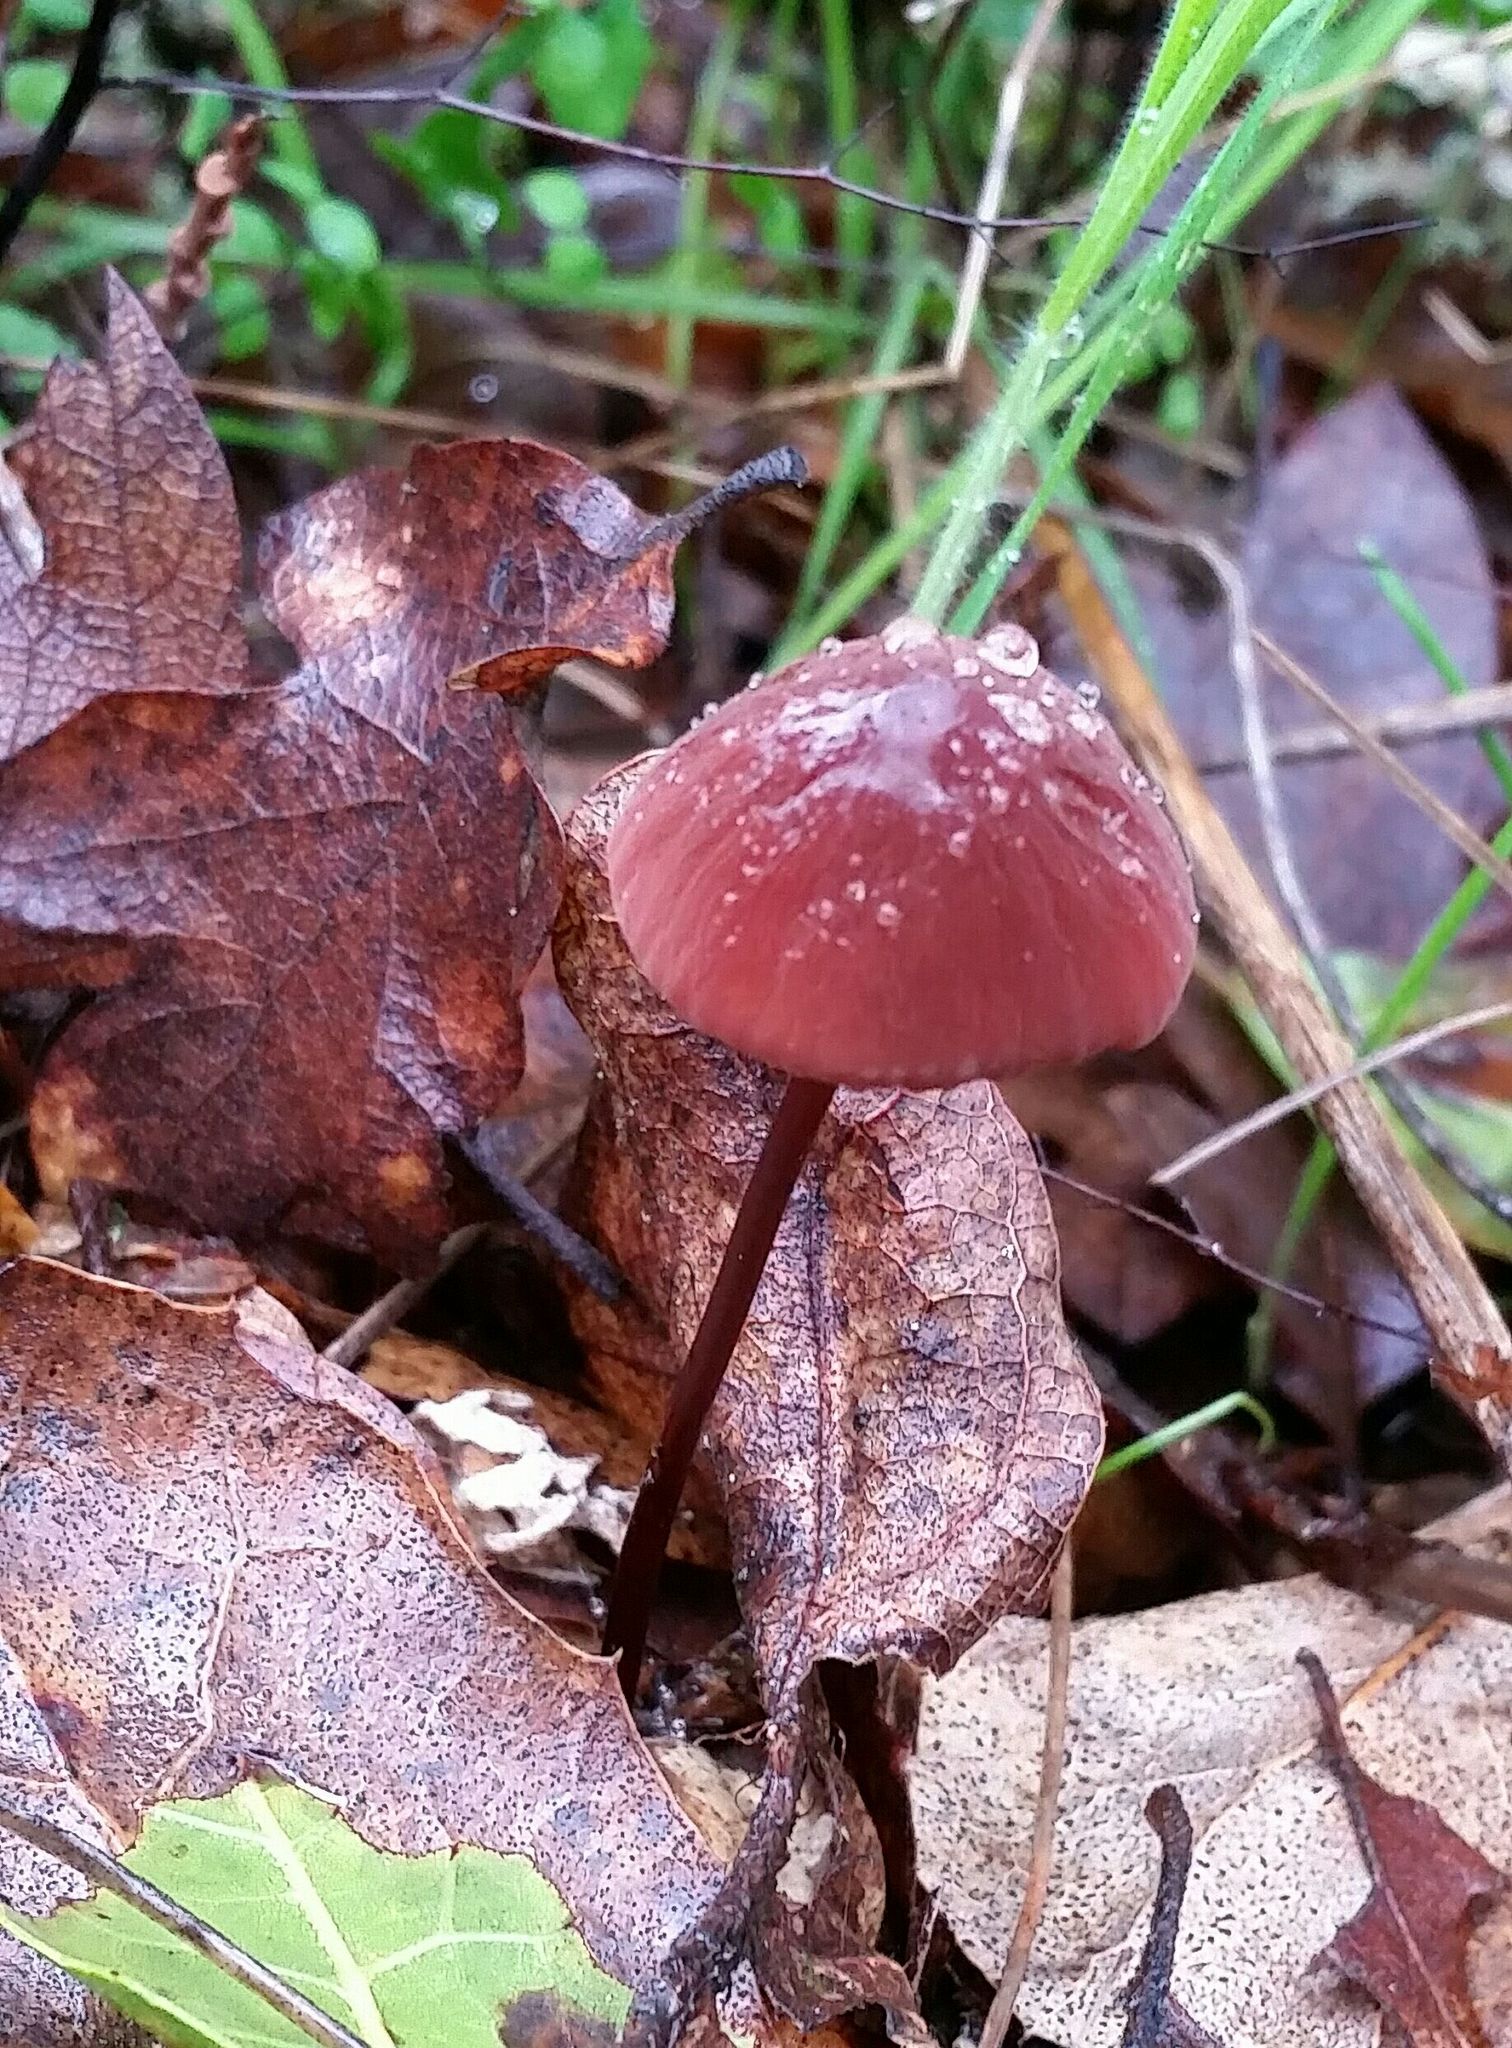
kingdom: Fungi
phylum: Basidiomycota
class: Agaricomycetes
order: Agaricales
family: Marasmiaceae
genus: Marasmius
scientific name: Marasmius plicatulus
